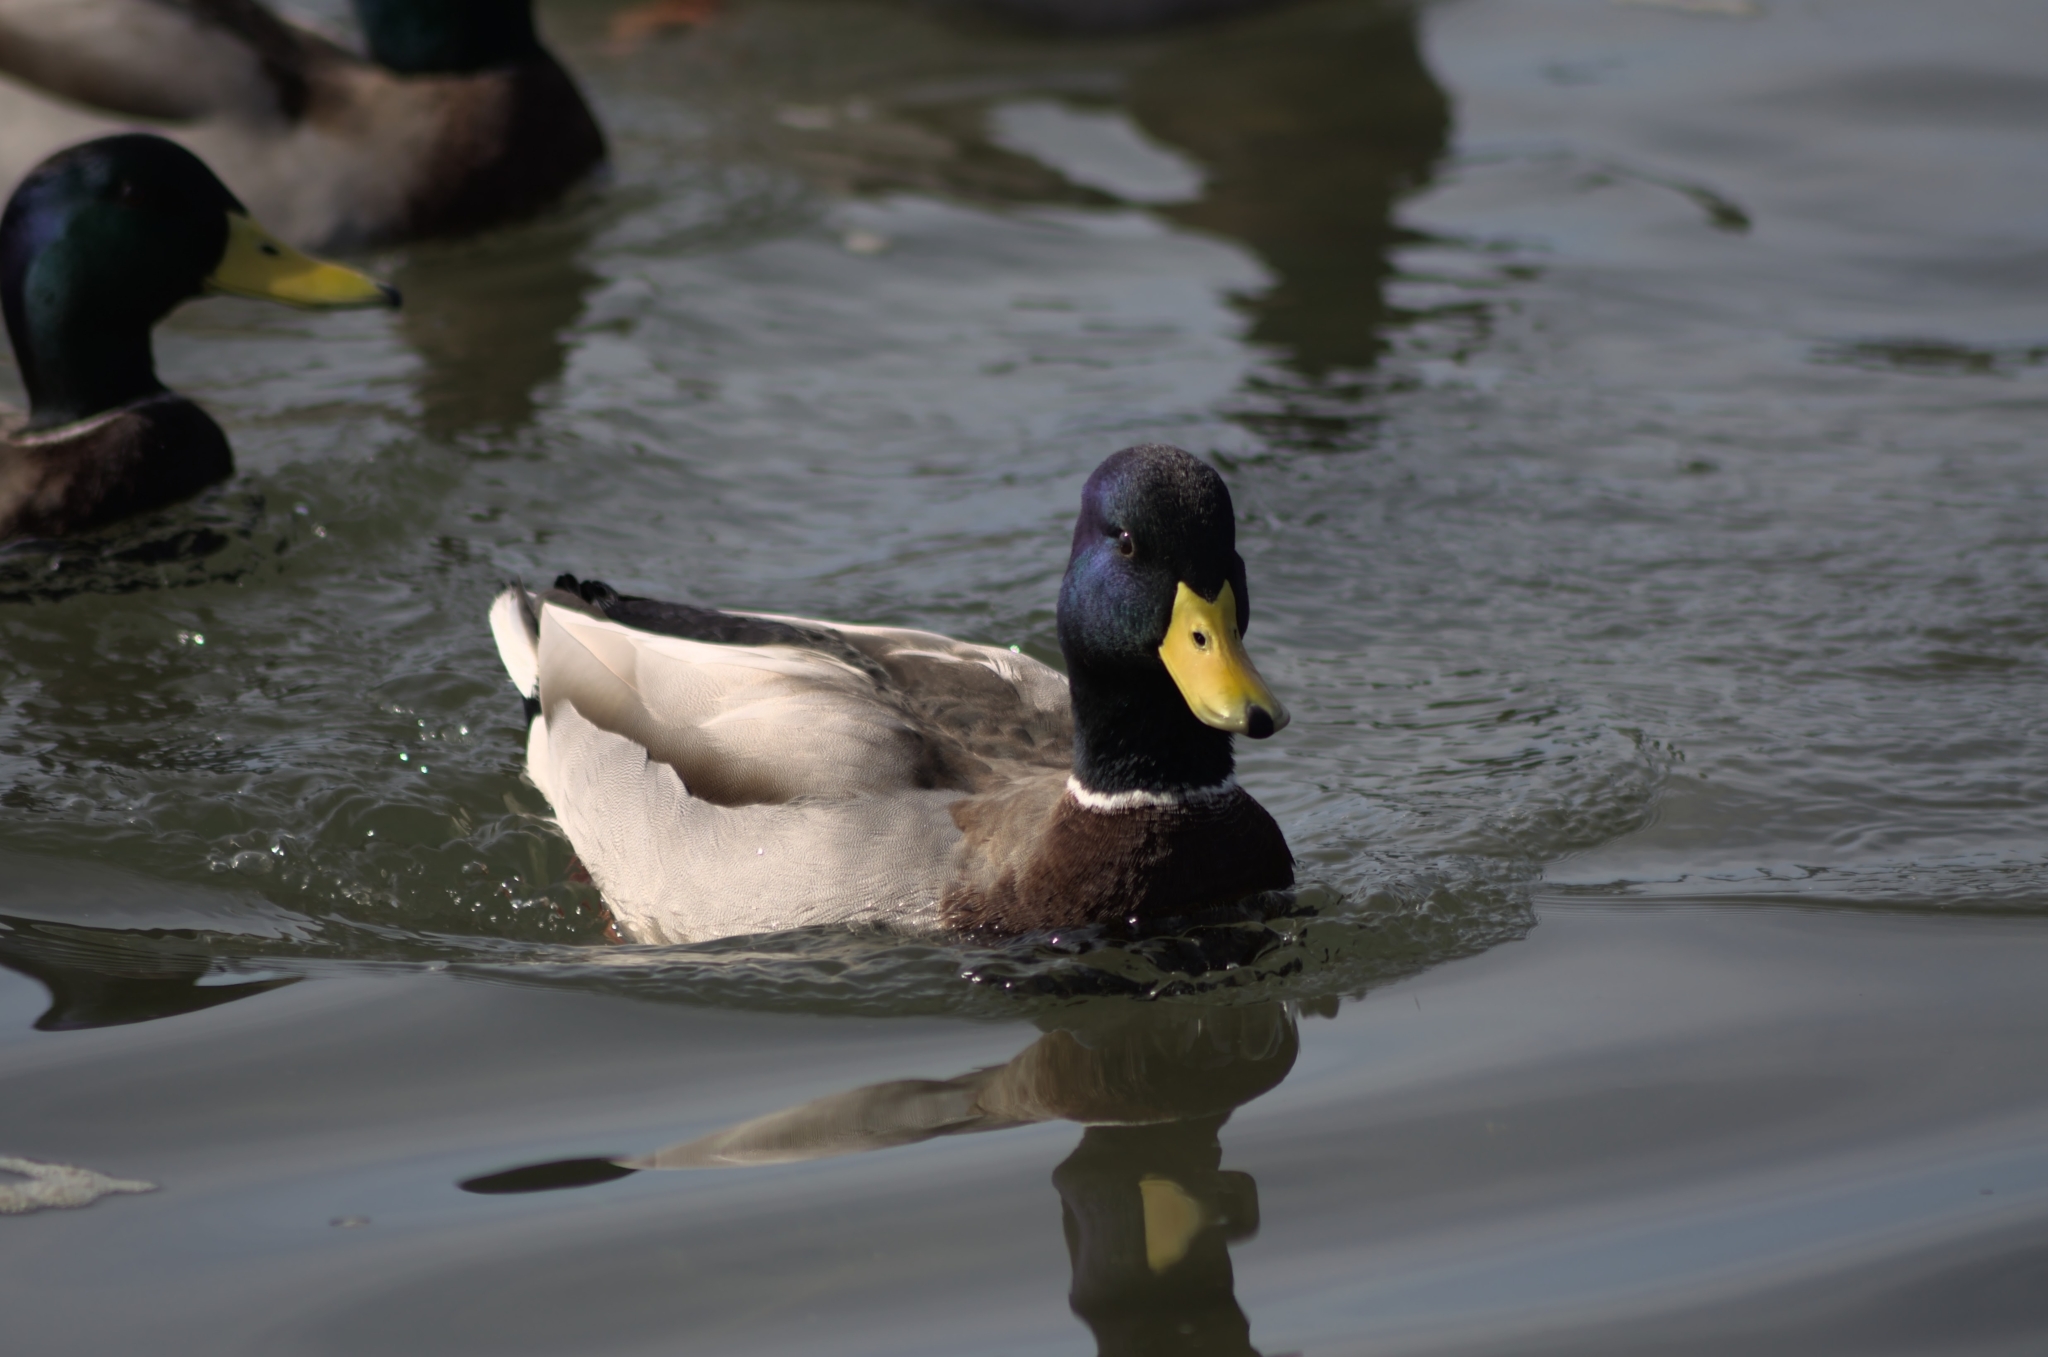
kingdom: Animalia
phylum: Chordata
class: Aves
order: Anseriformes
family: Anatidae
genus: Anas
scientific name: Anas platyrhynchos
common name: Mallard
